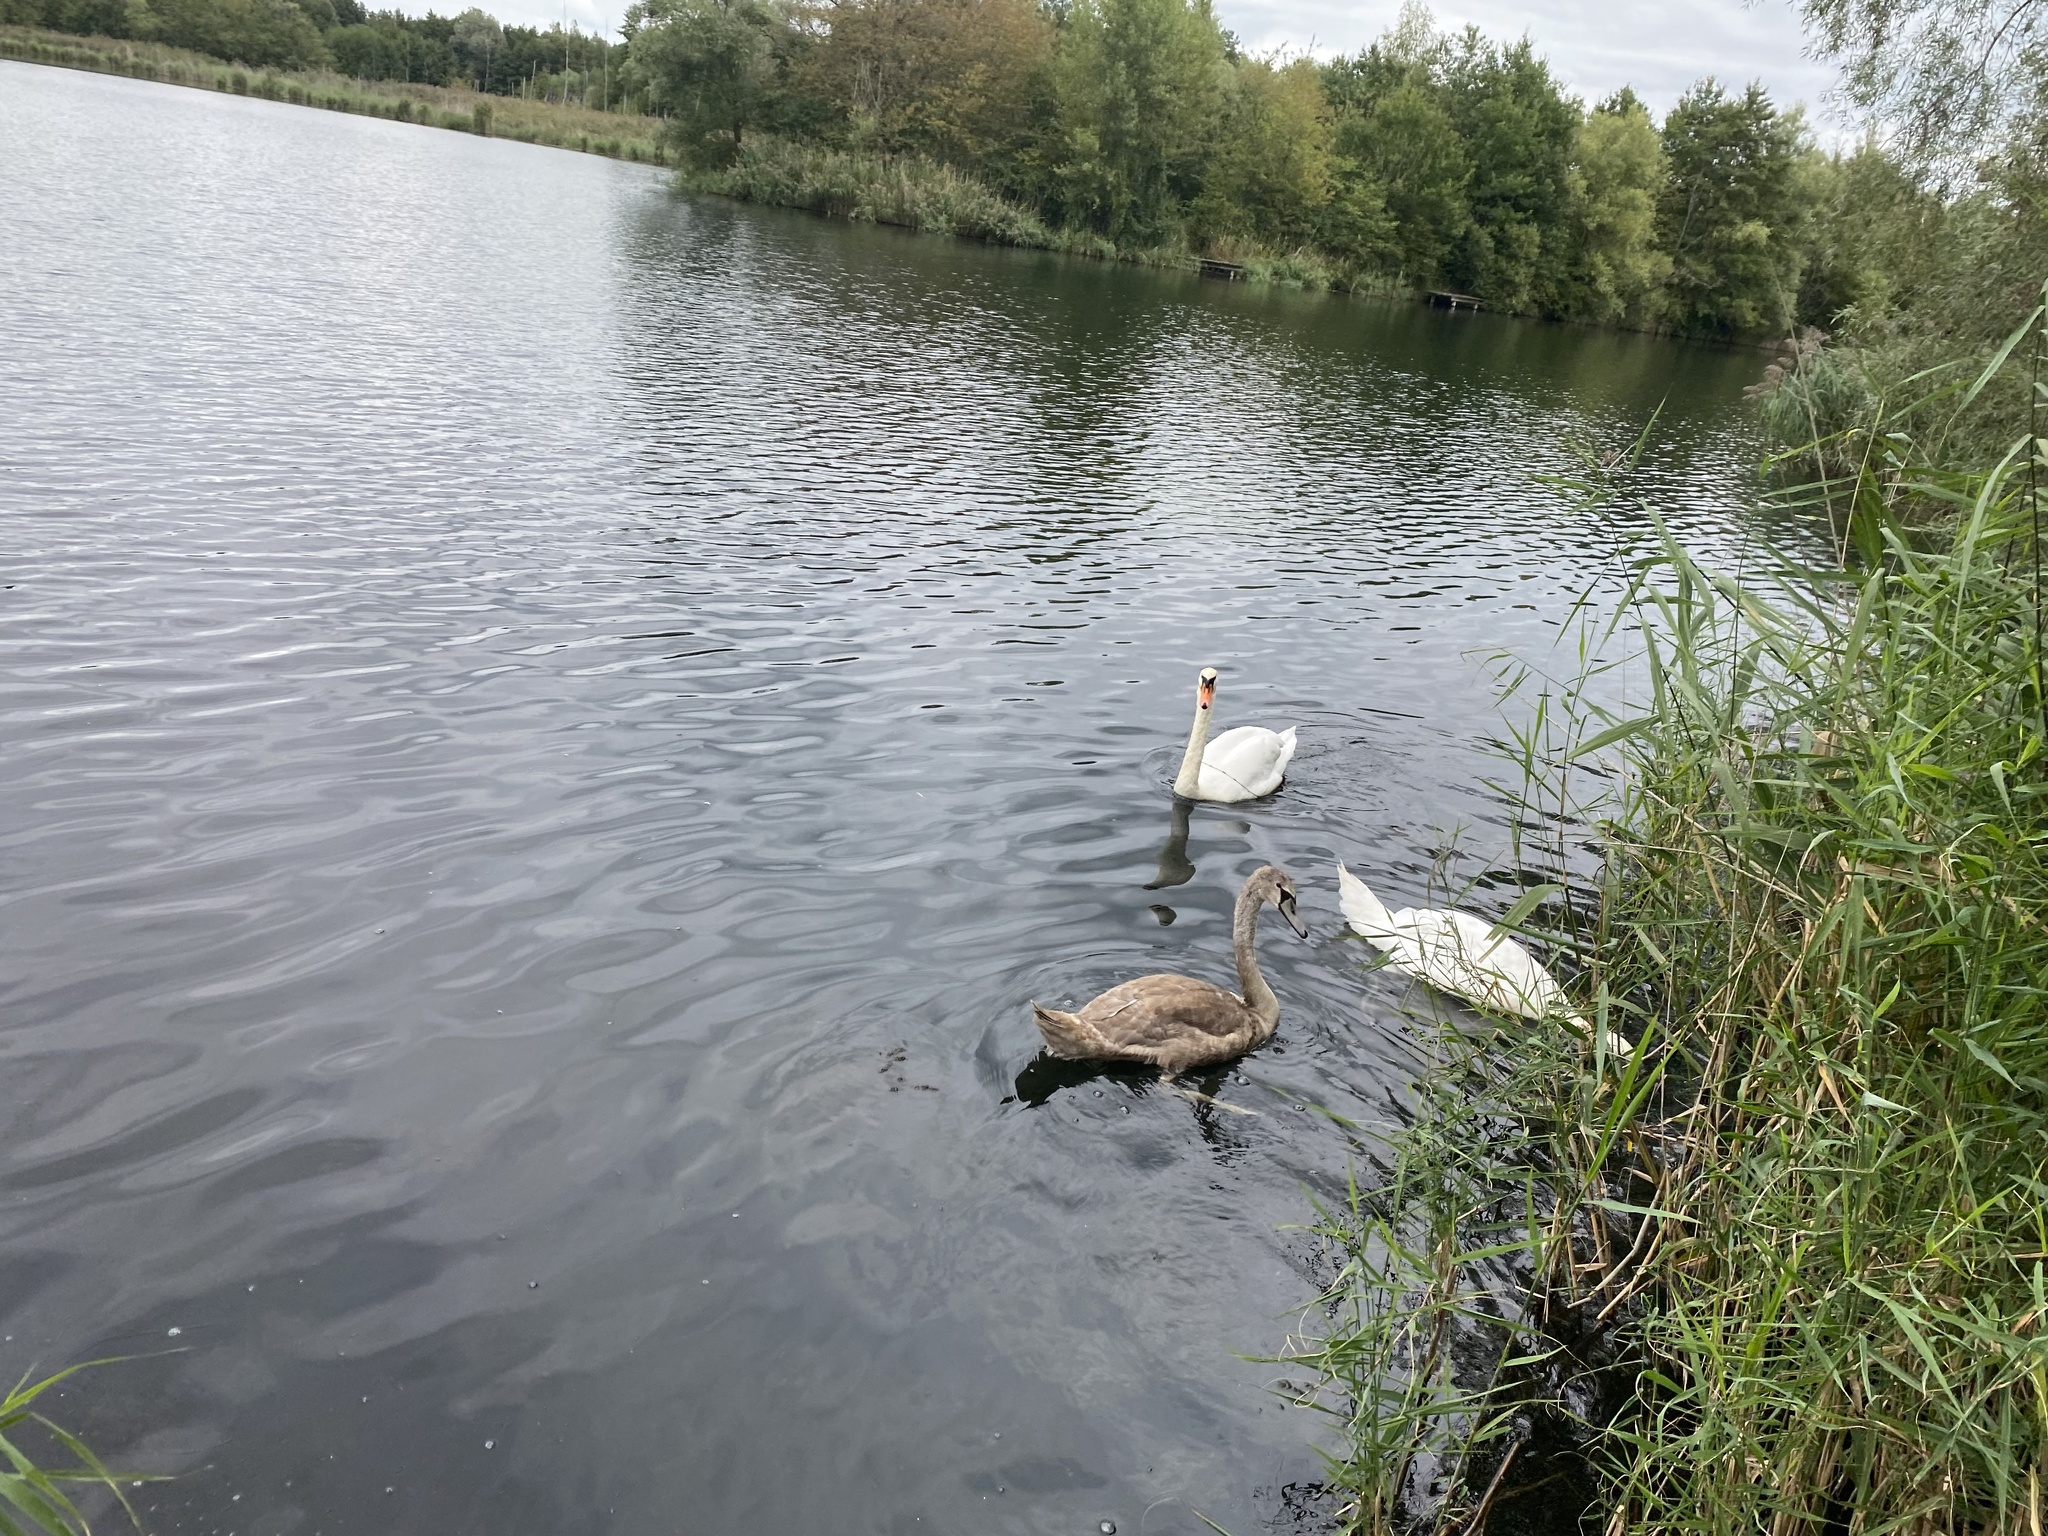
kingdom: Animalia
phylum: Chordata
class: Aves
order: Anseriformes
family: Anatidae
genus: Cygnus
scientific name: Cygnus olor
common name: Mute swan
